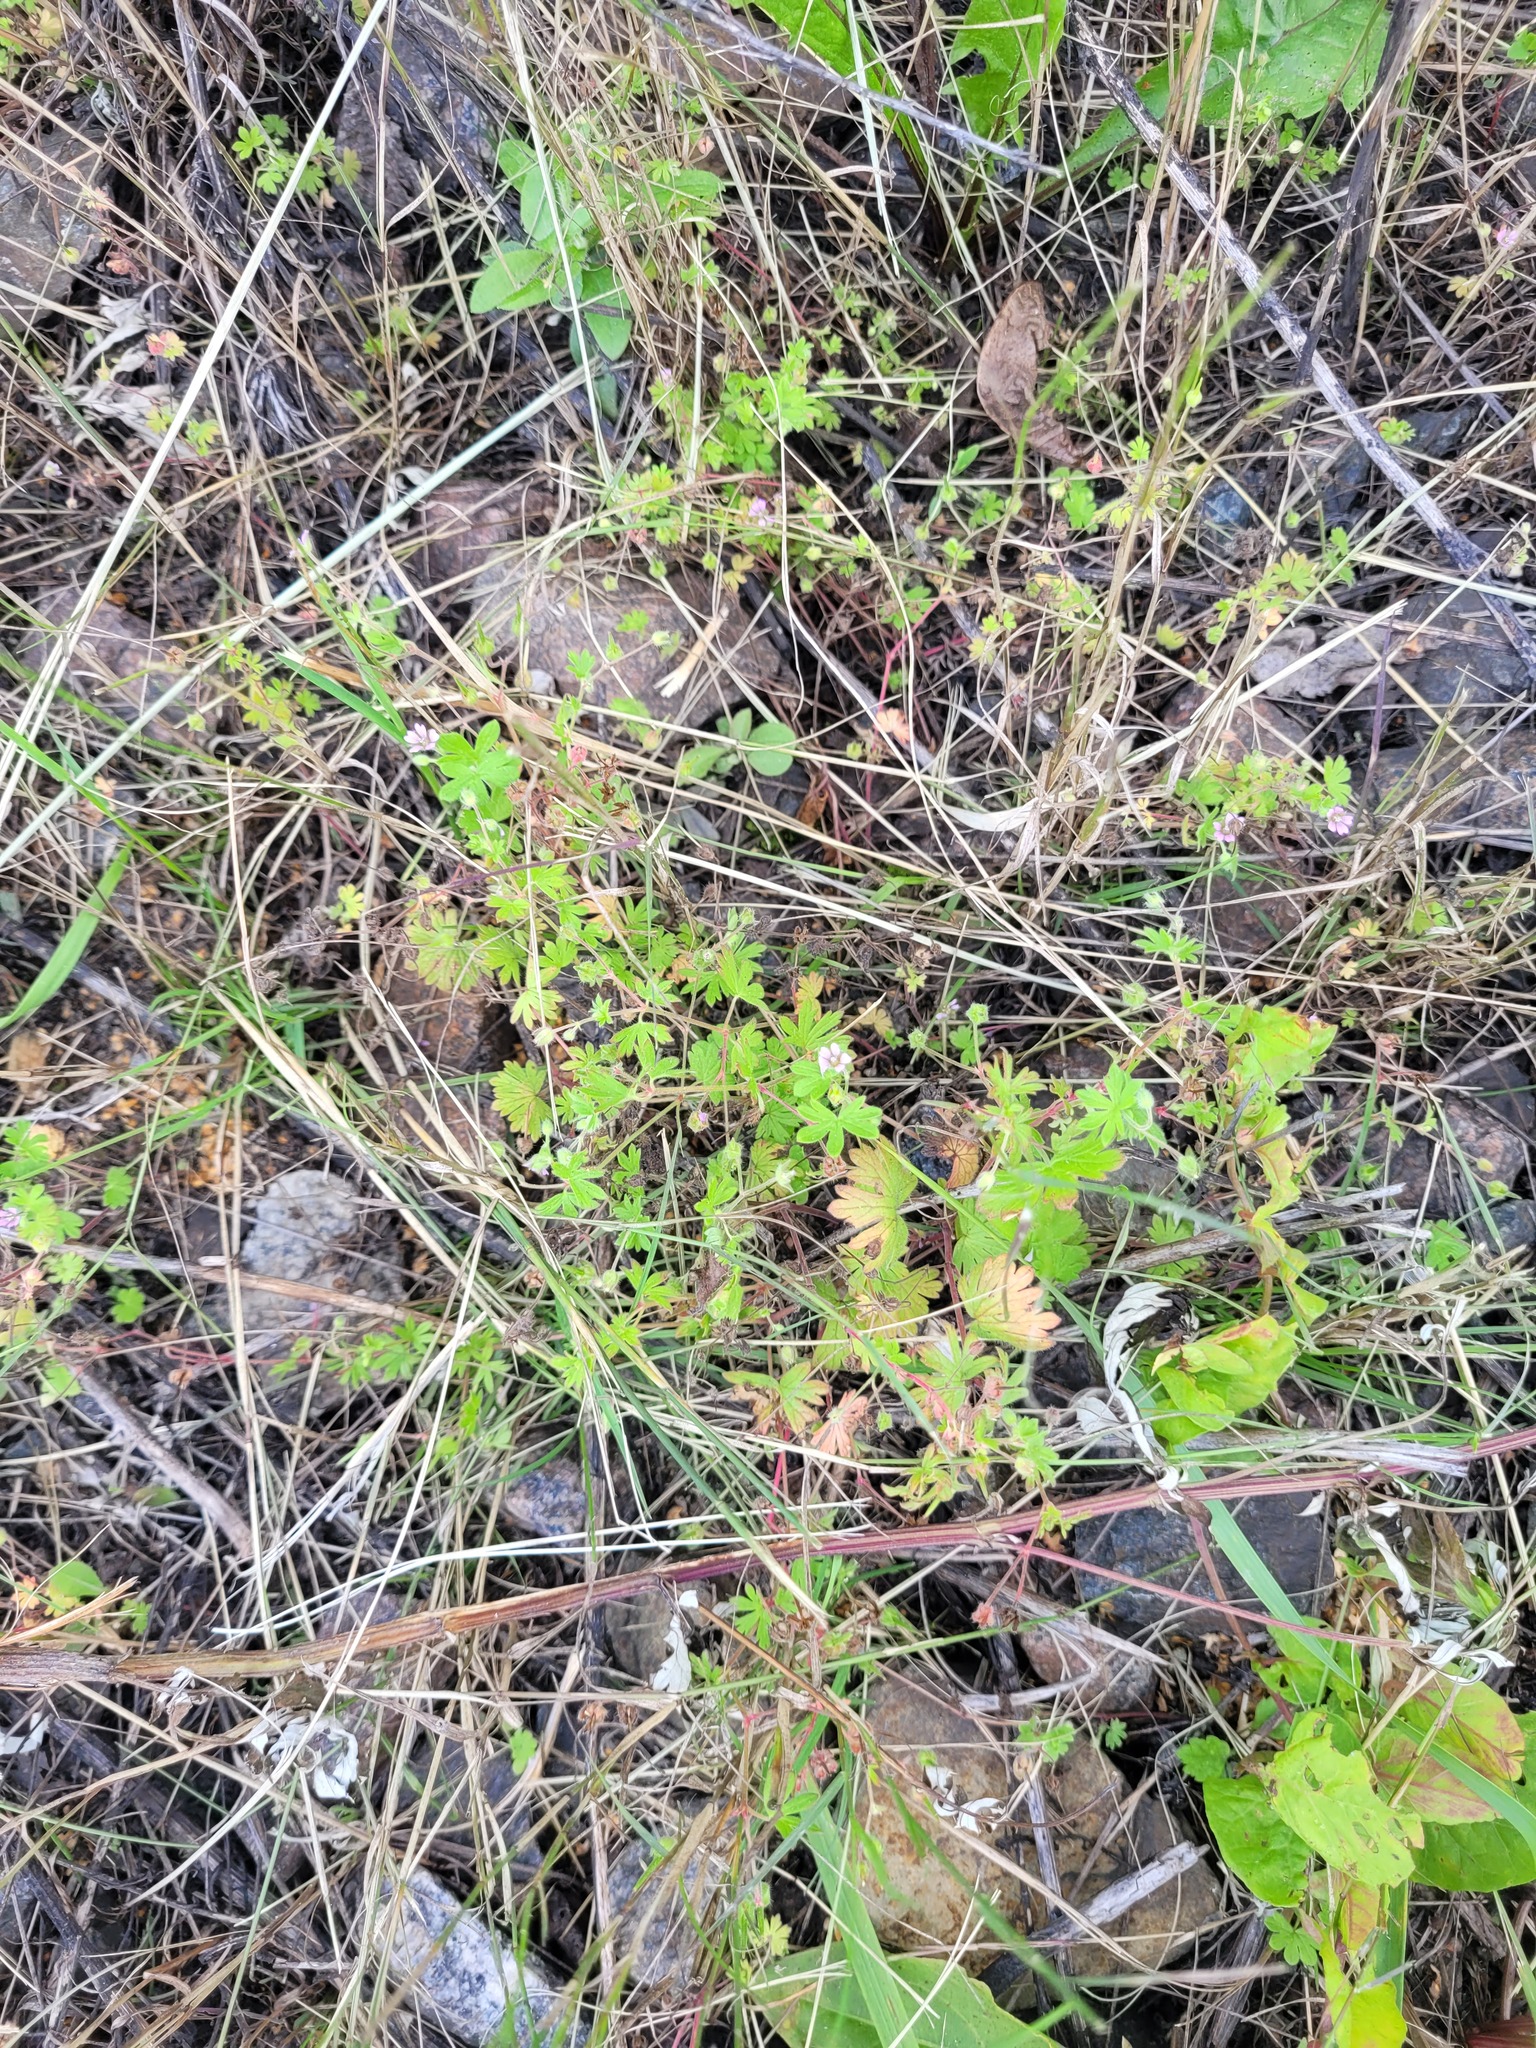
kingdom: Plantae
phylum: Tracheophyta
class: Magnoliopsida
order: Geraniales
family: Geraniaceae
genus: Geranium
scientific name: Geranium pusillum
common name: Small geranium
